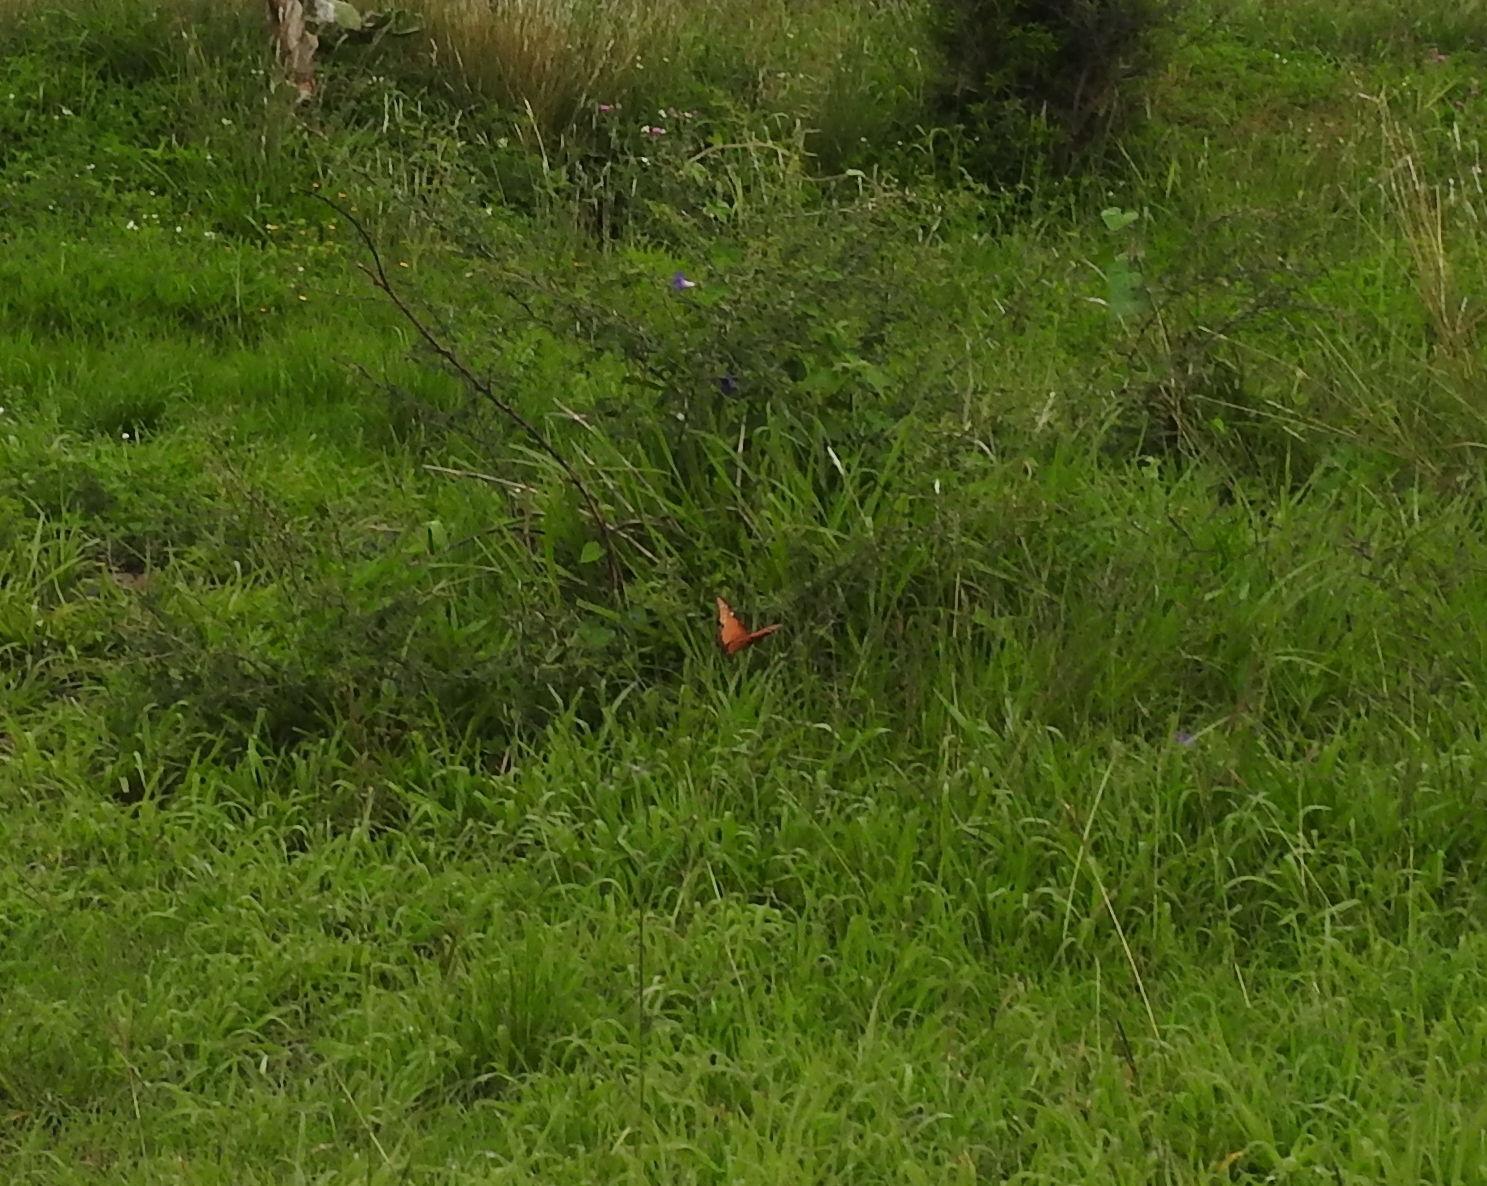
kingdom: Animalia
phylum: Arthropoda
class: Insecta
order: Lepidoptera
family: Nymphalidae
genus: Danaus
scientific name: Danaus gilippus
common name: Queen
